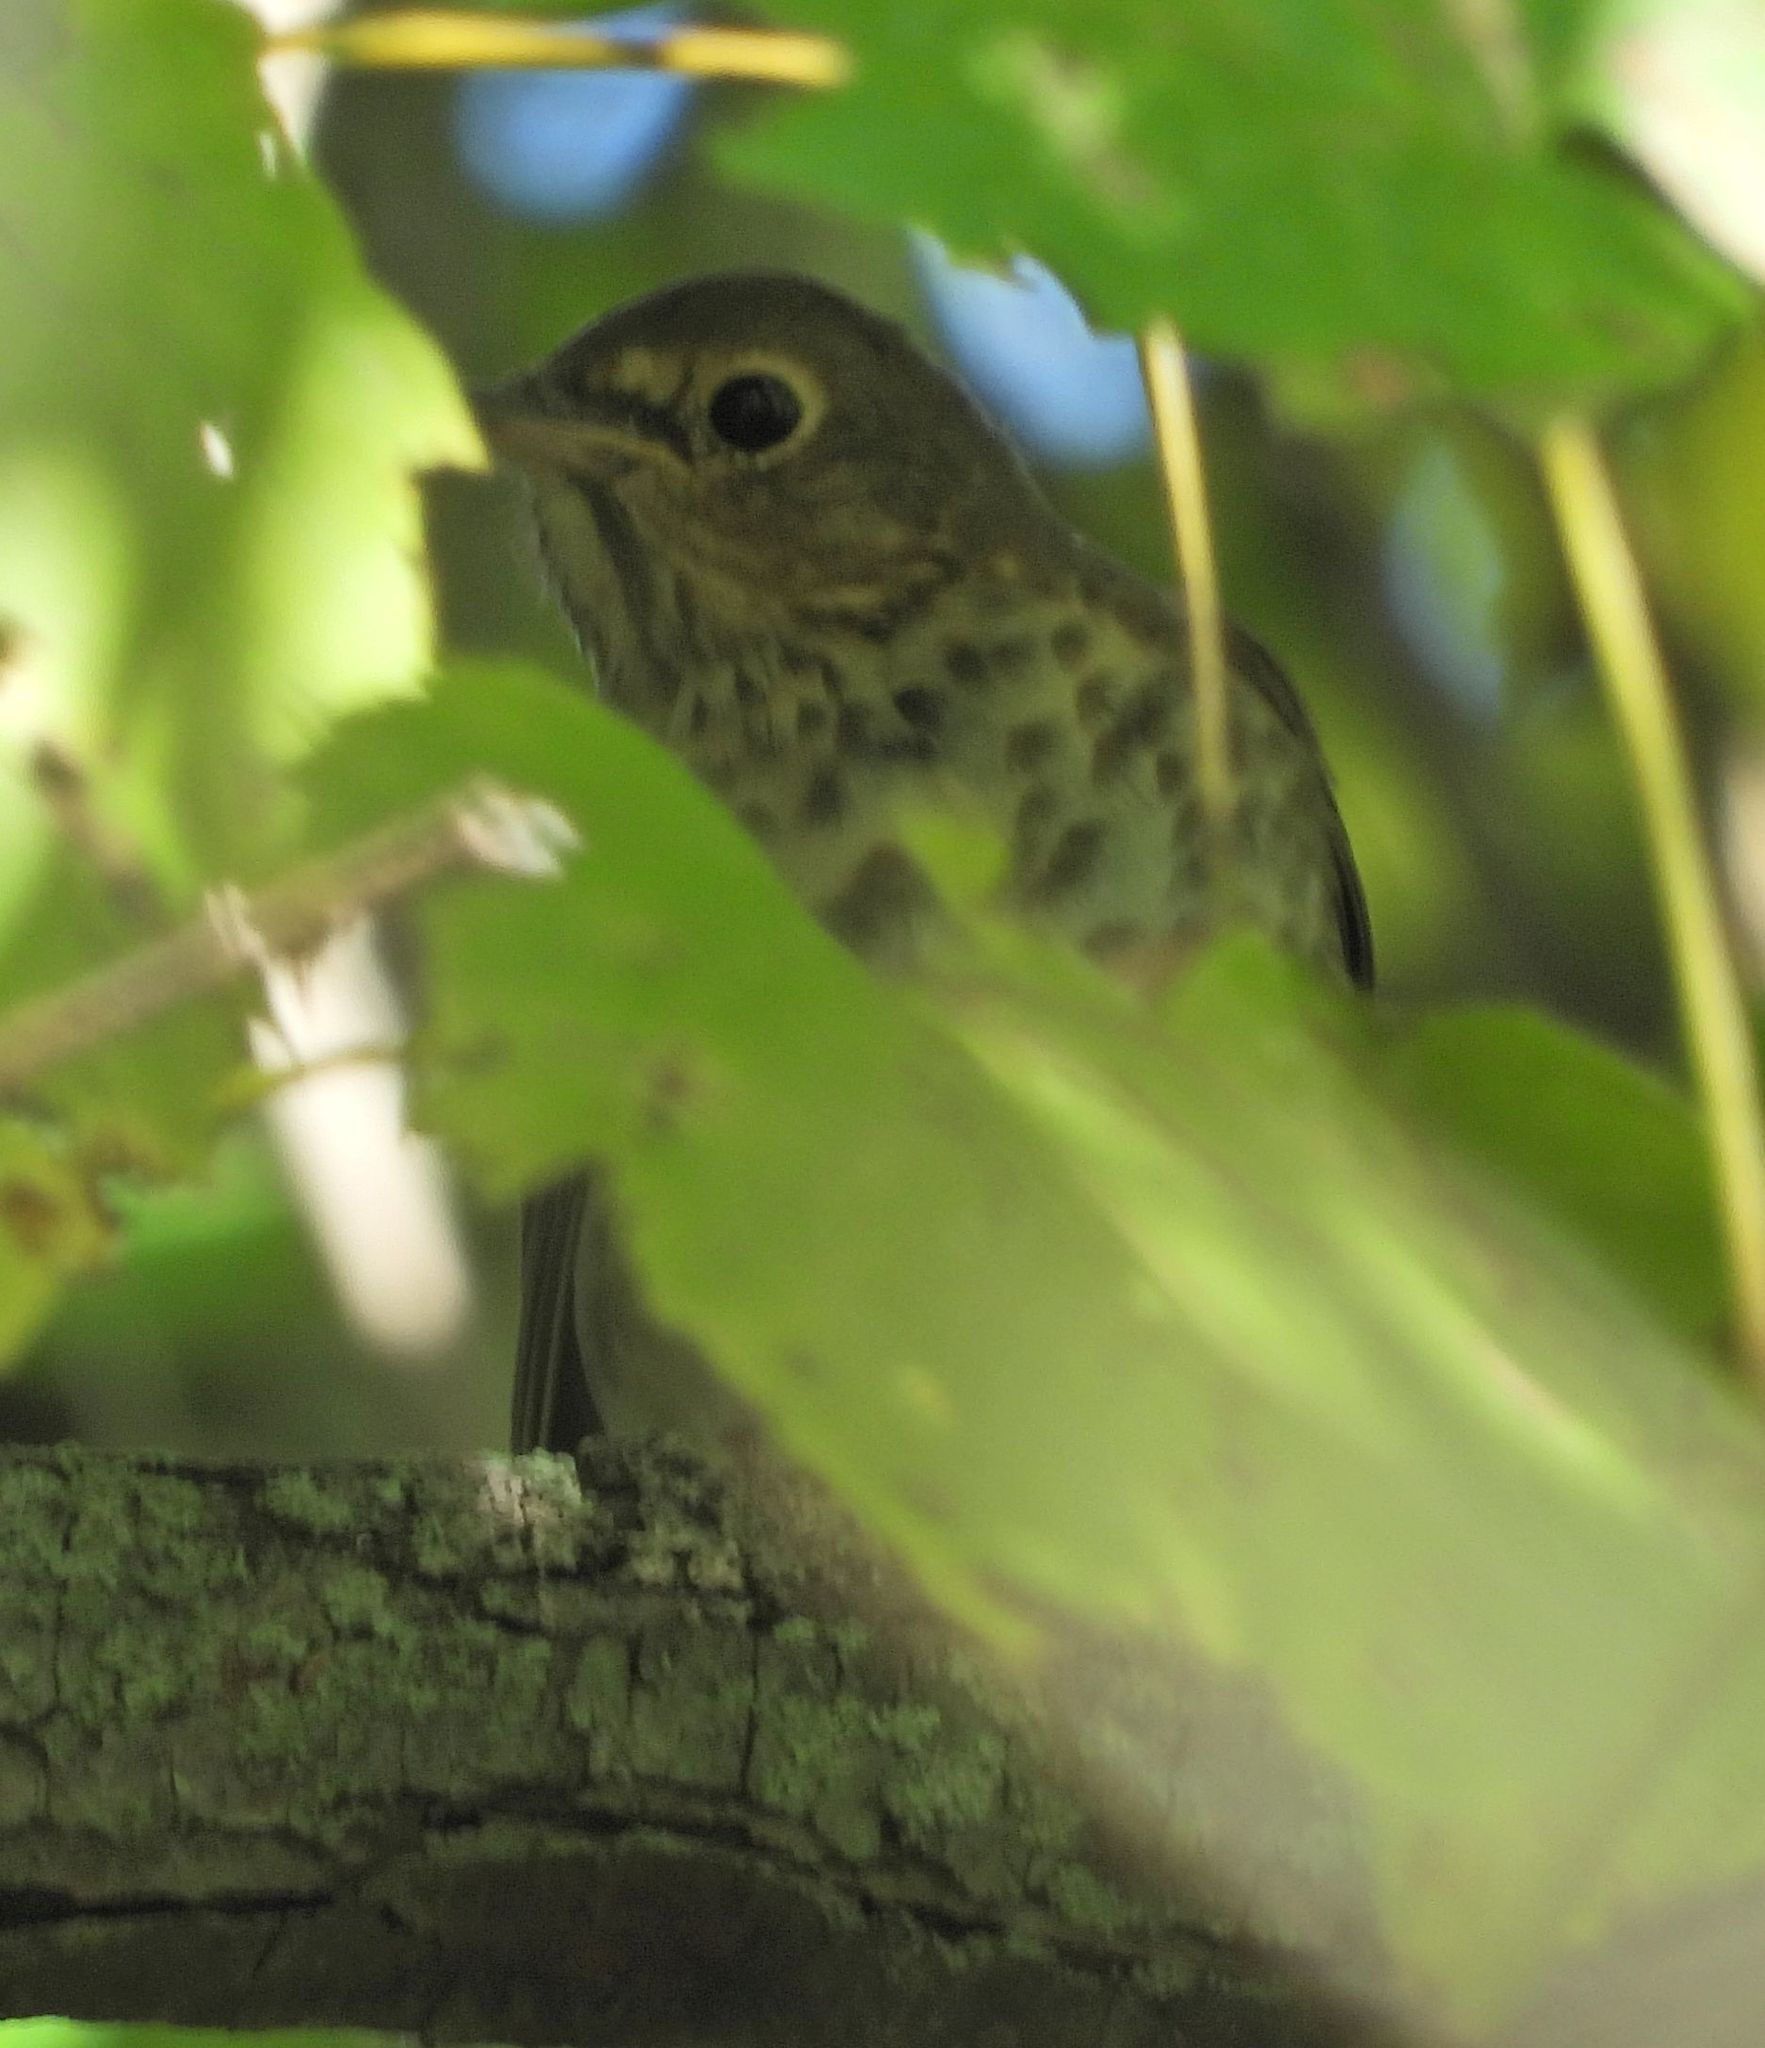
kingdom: Animalia
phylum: Chordata
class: Aves
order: Passeriformes
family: Turdidae
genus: Catharus
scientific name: Catharus ustulatus
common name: Swainson's thrush
